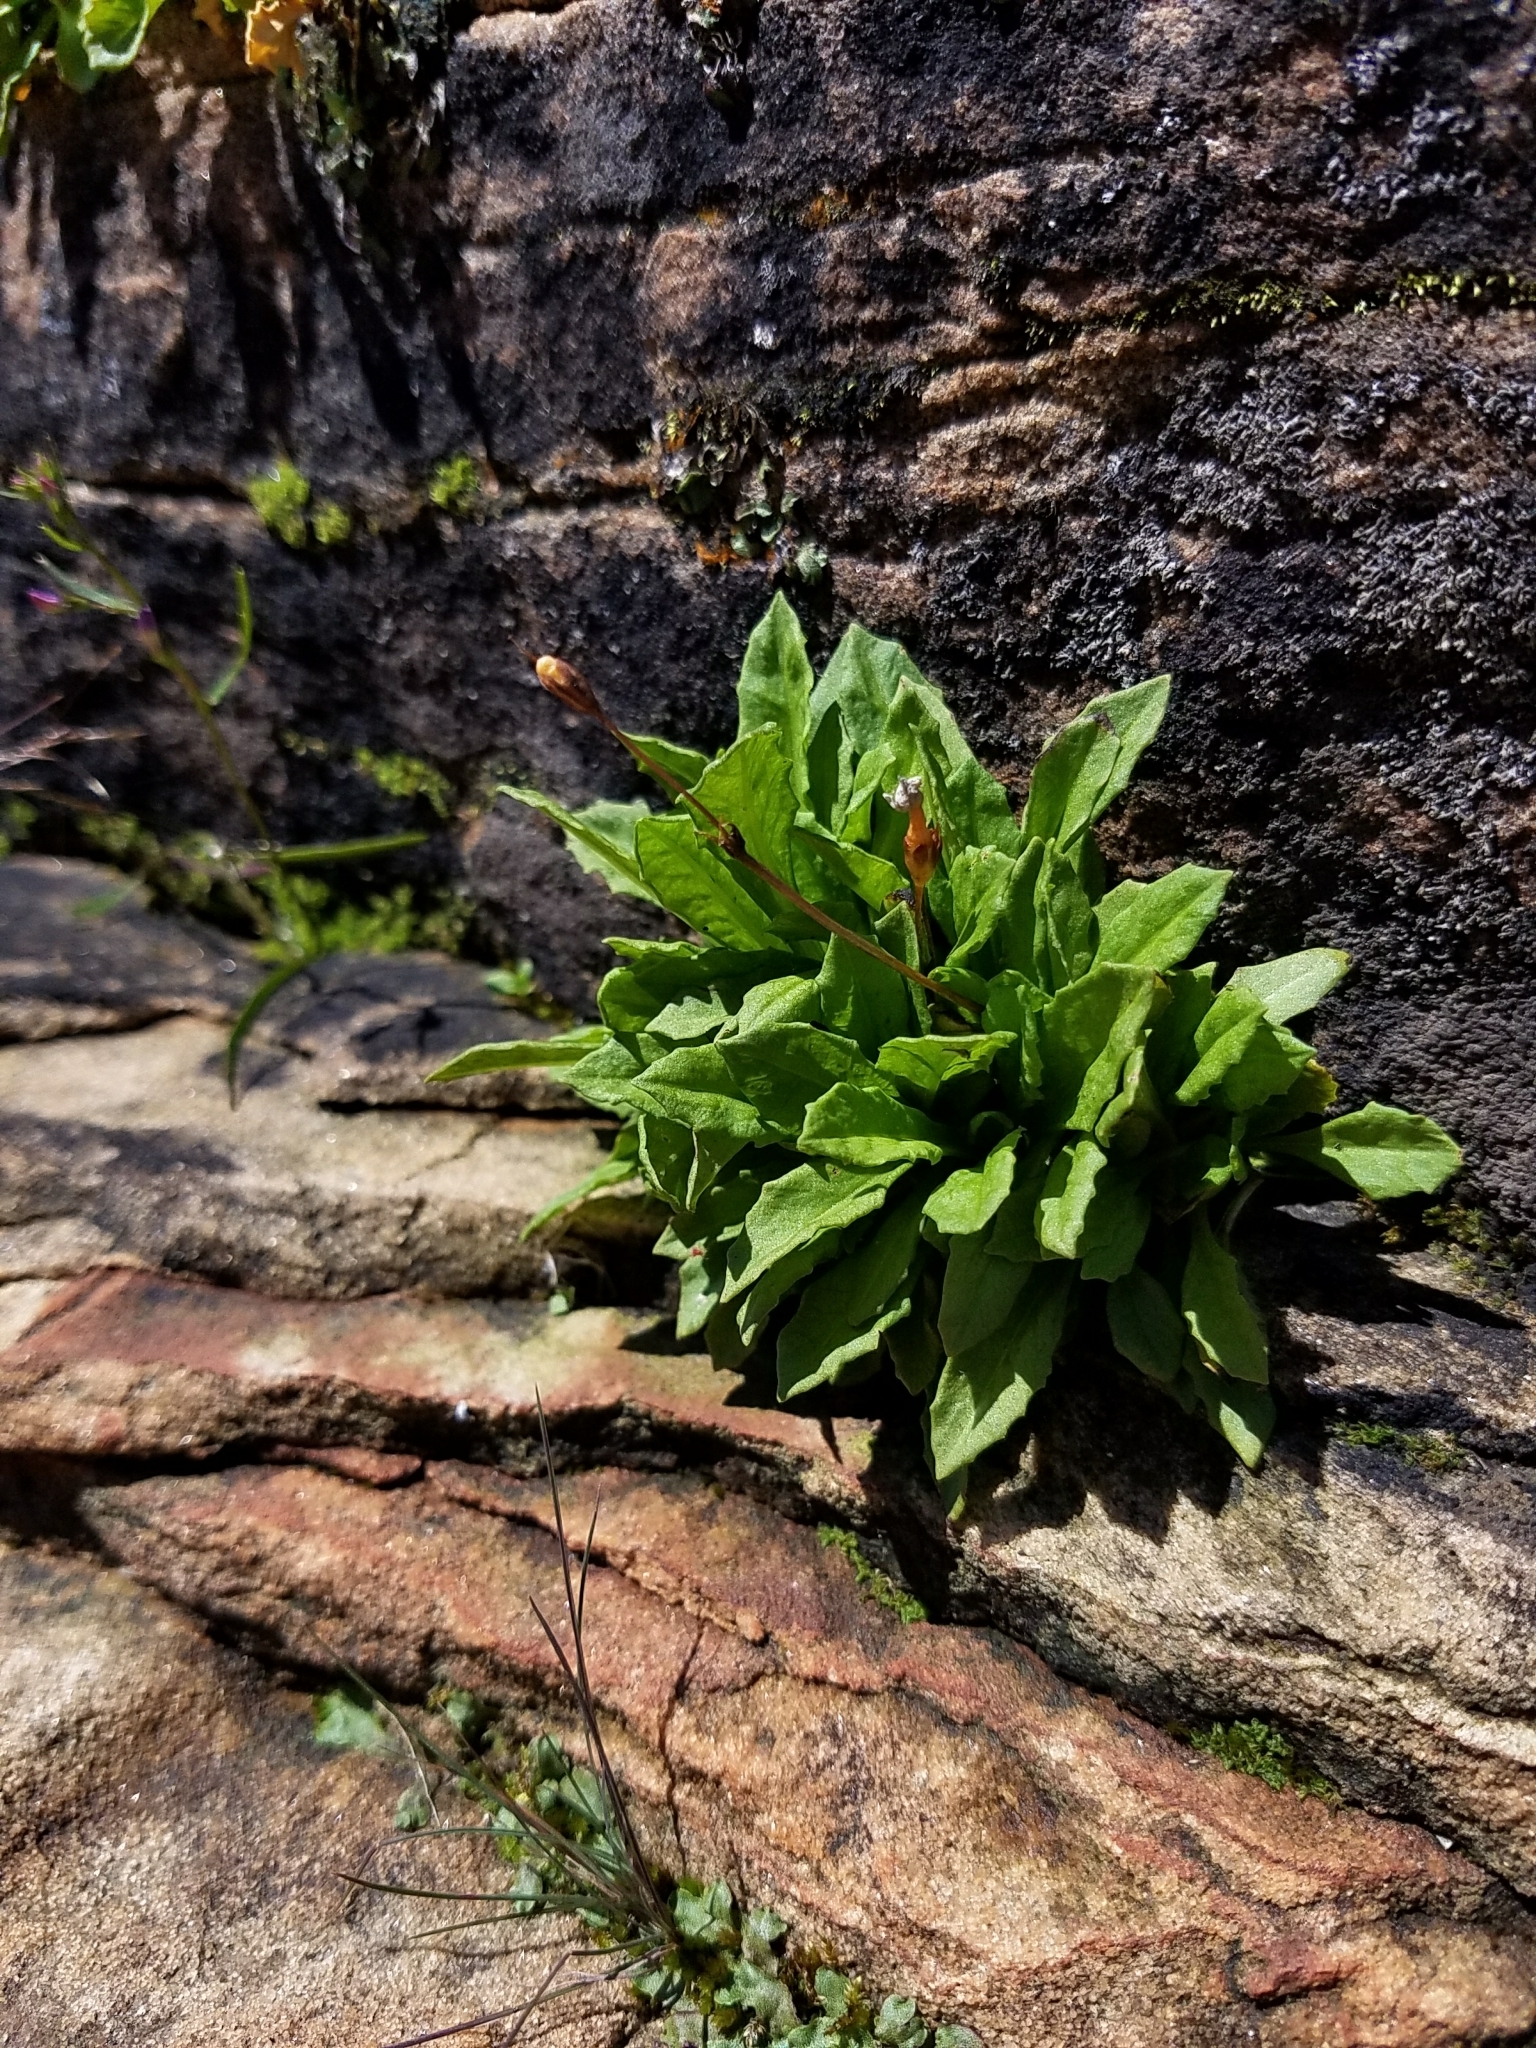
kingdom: Plantae
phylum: Tracheophyta
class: Magnoliopsida
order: Ericales
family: Primulaceae
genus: Primula
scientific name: Primula mistassinica
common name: Bird's-eye primrose
